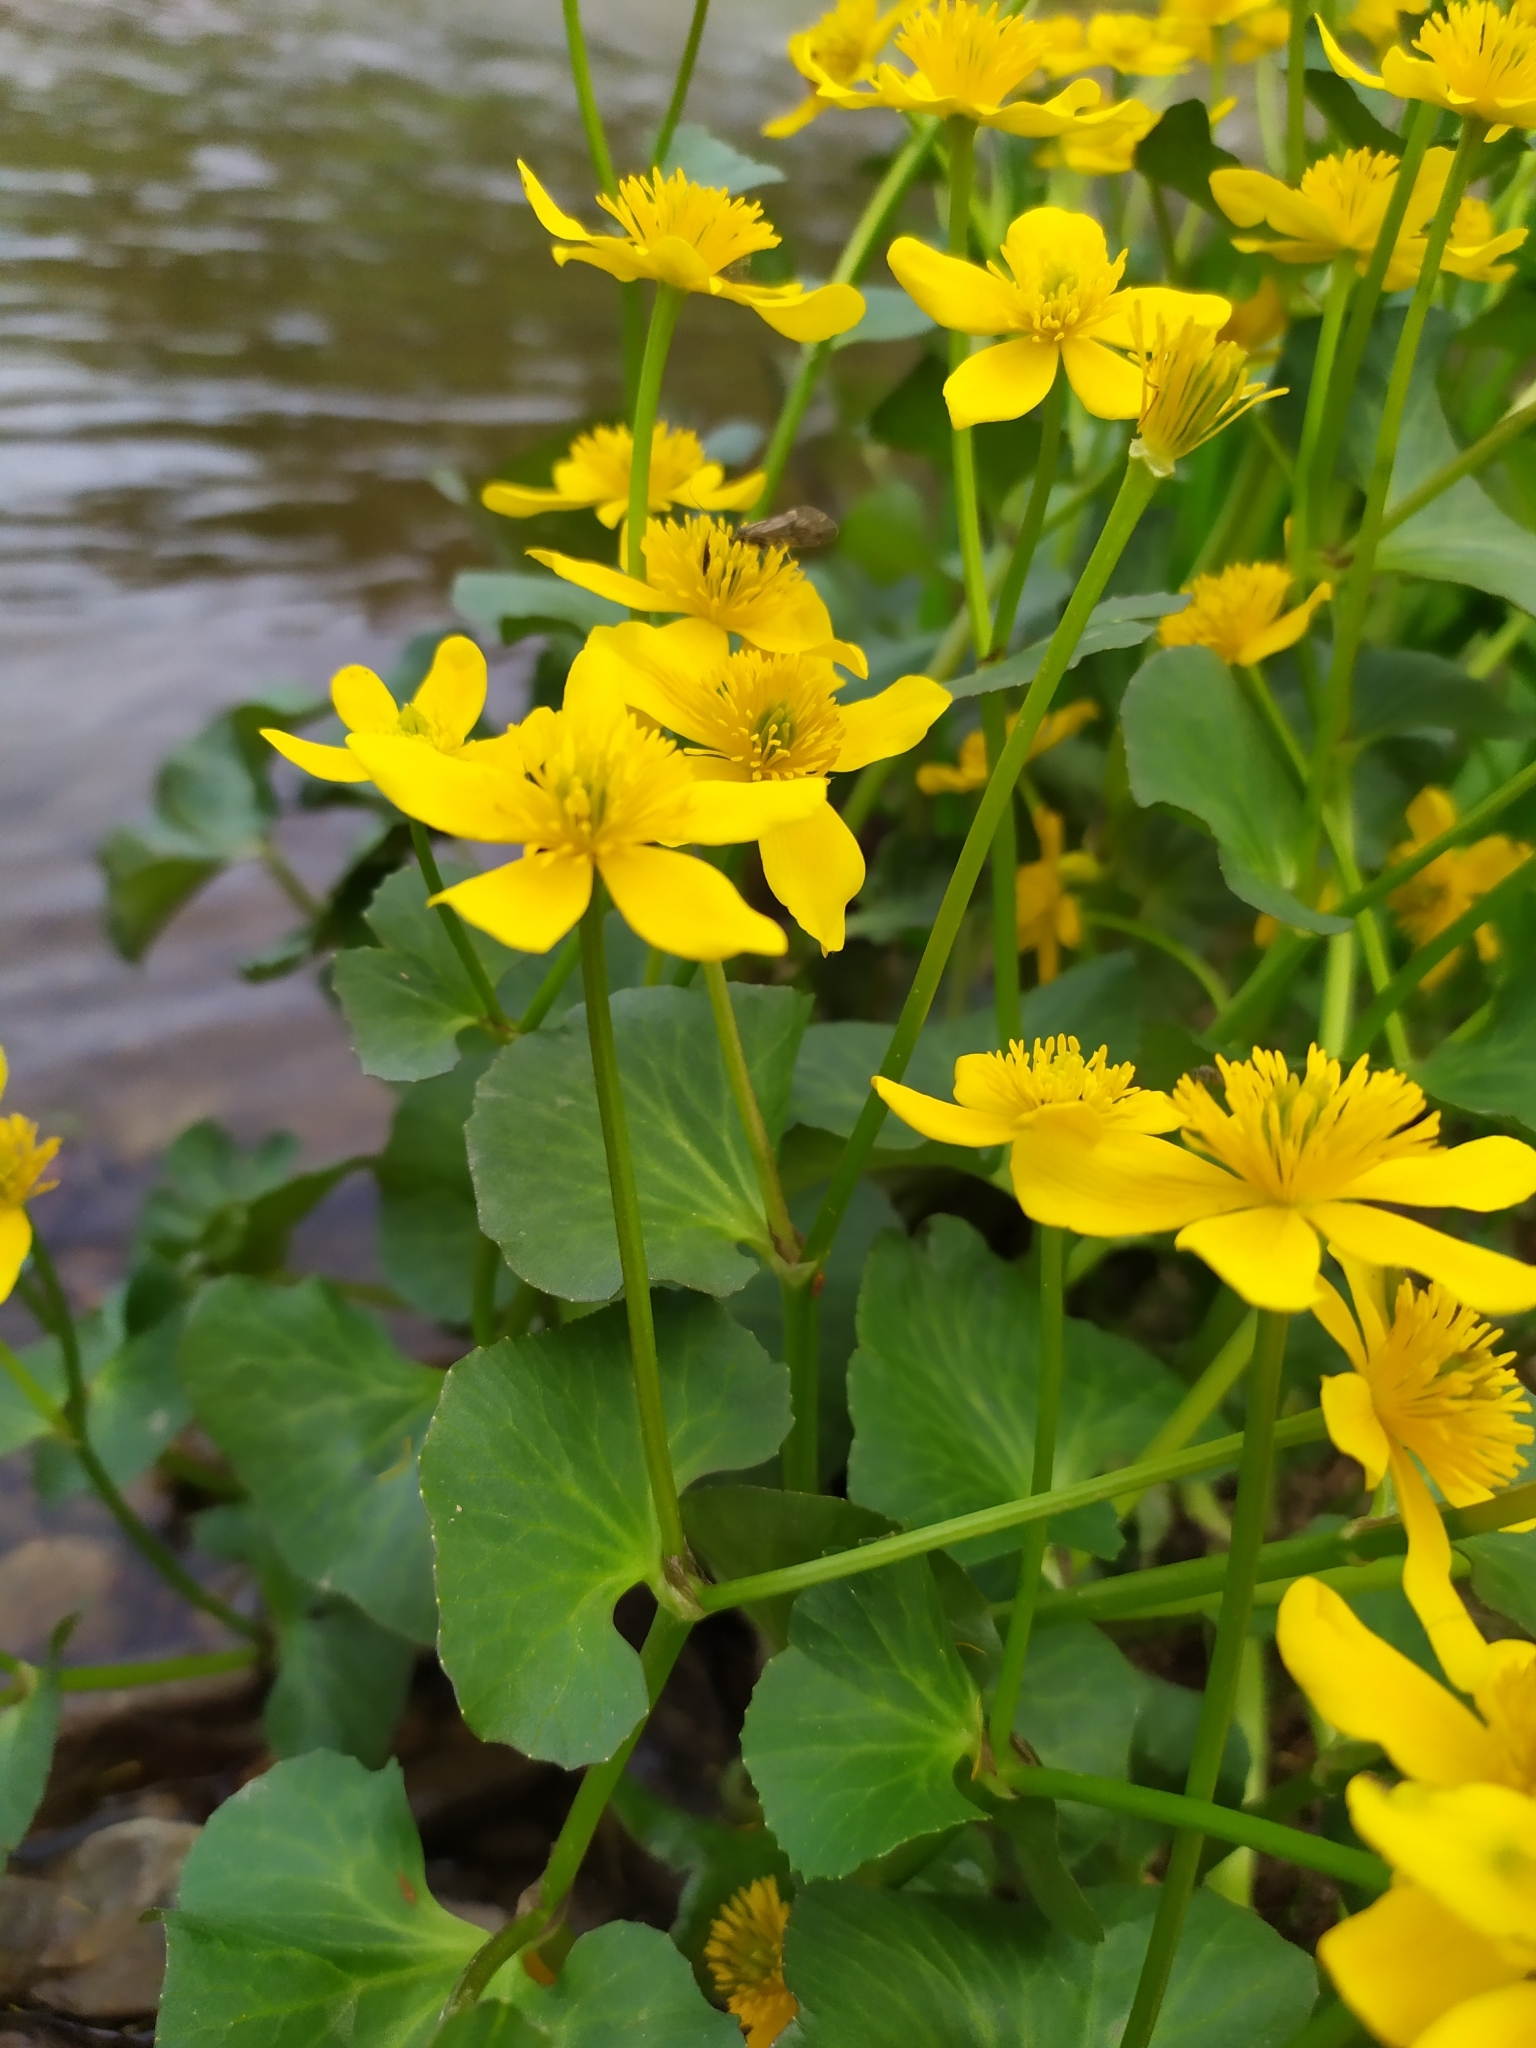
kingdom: Plantae
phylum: Tracheophyta
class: Magnoliopsida
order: Ranunculales
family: Ranunculaceae
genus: Caltha
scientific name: Caltha palustris
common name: Marsh marigold
